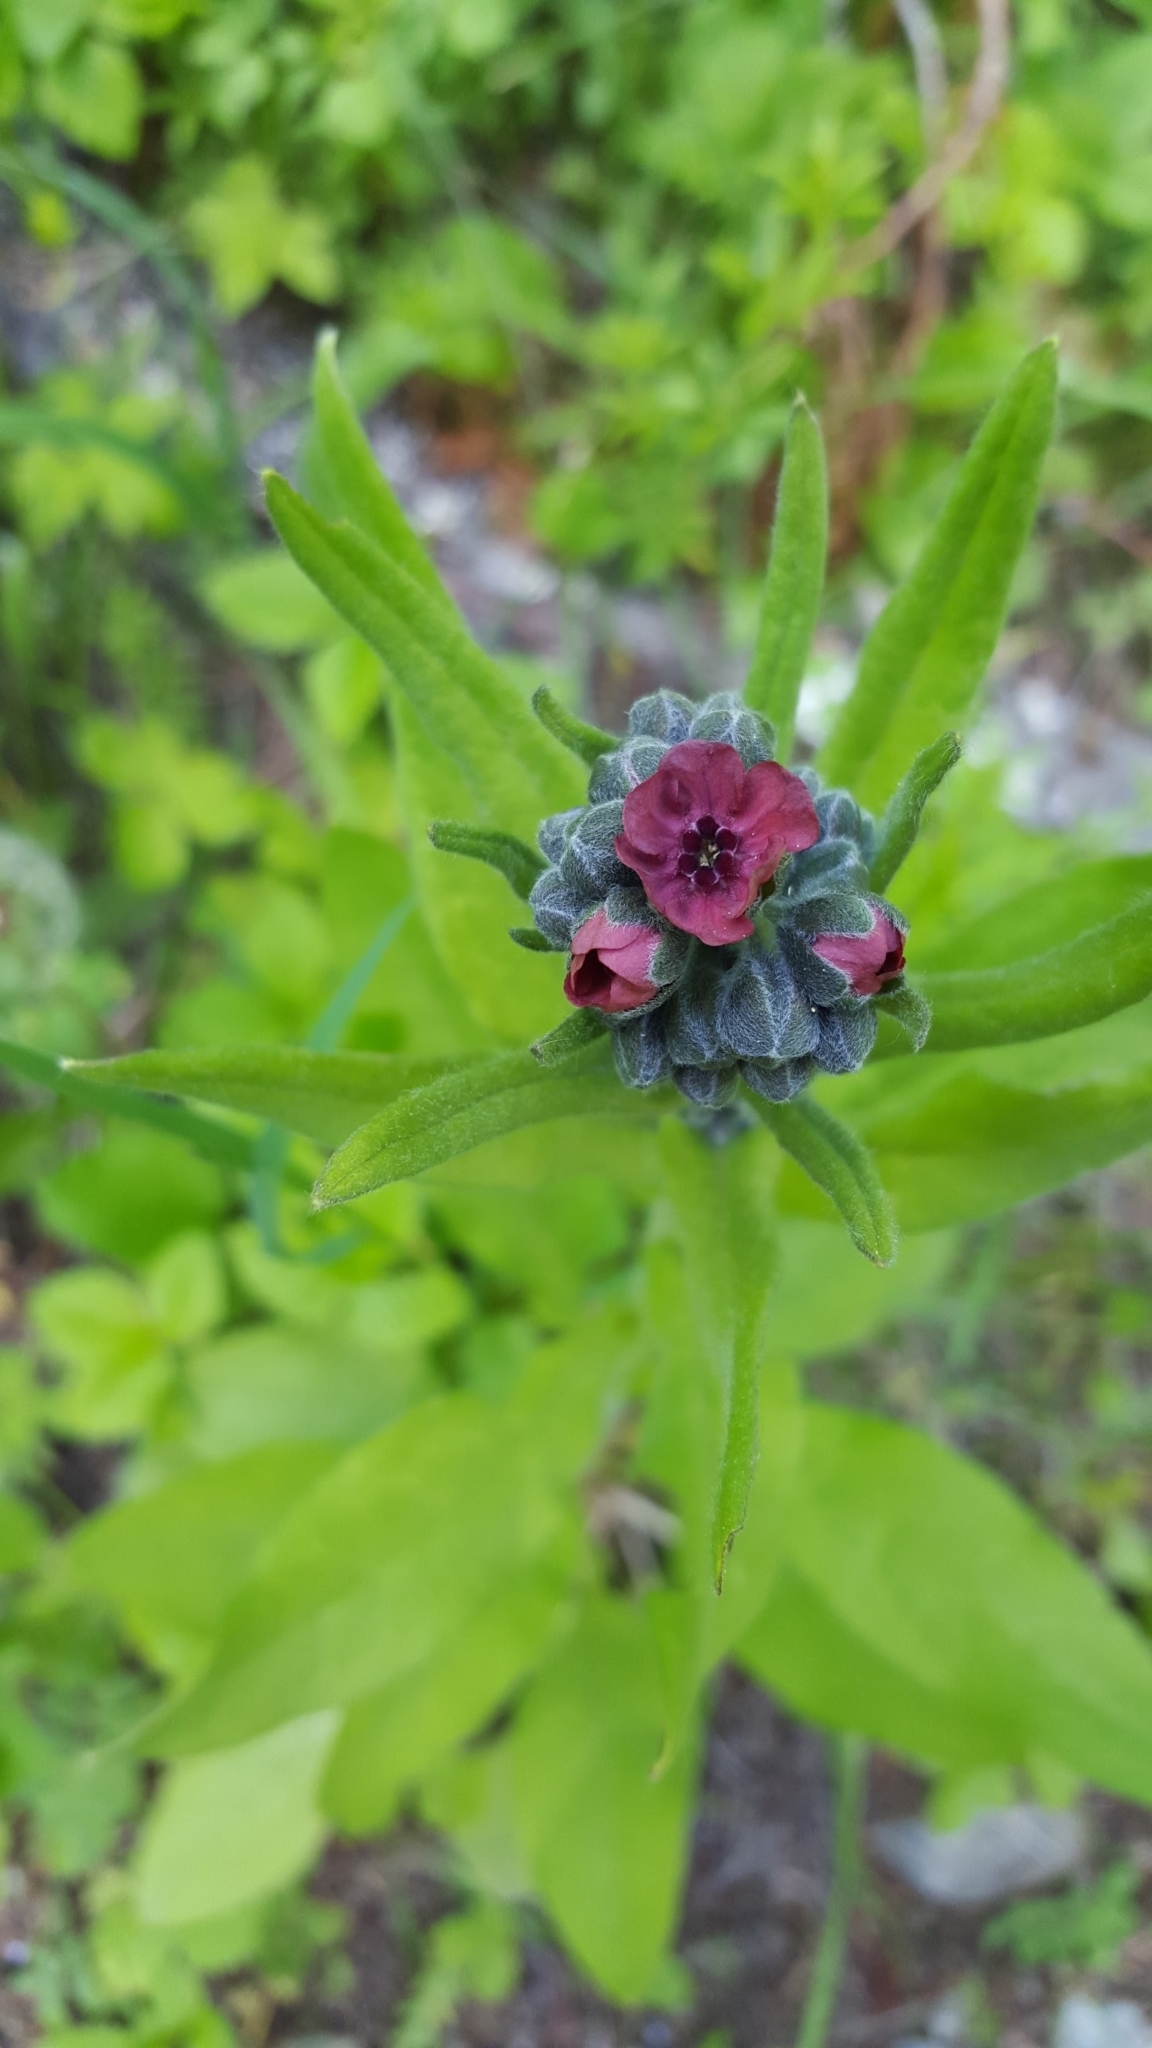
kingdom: Plantae
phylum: Tracheophyta
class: Magnoliopsida
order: Boraginales
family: Boraginaceae
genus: Cynoglossum
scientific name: Cynoglossum officinale
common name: Hound's-tongue
